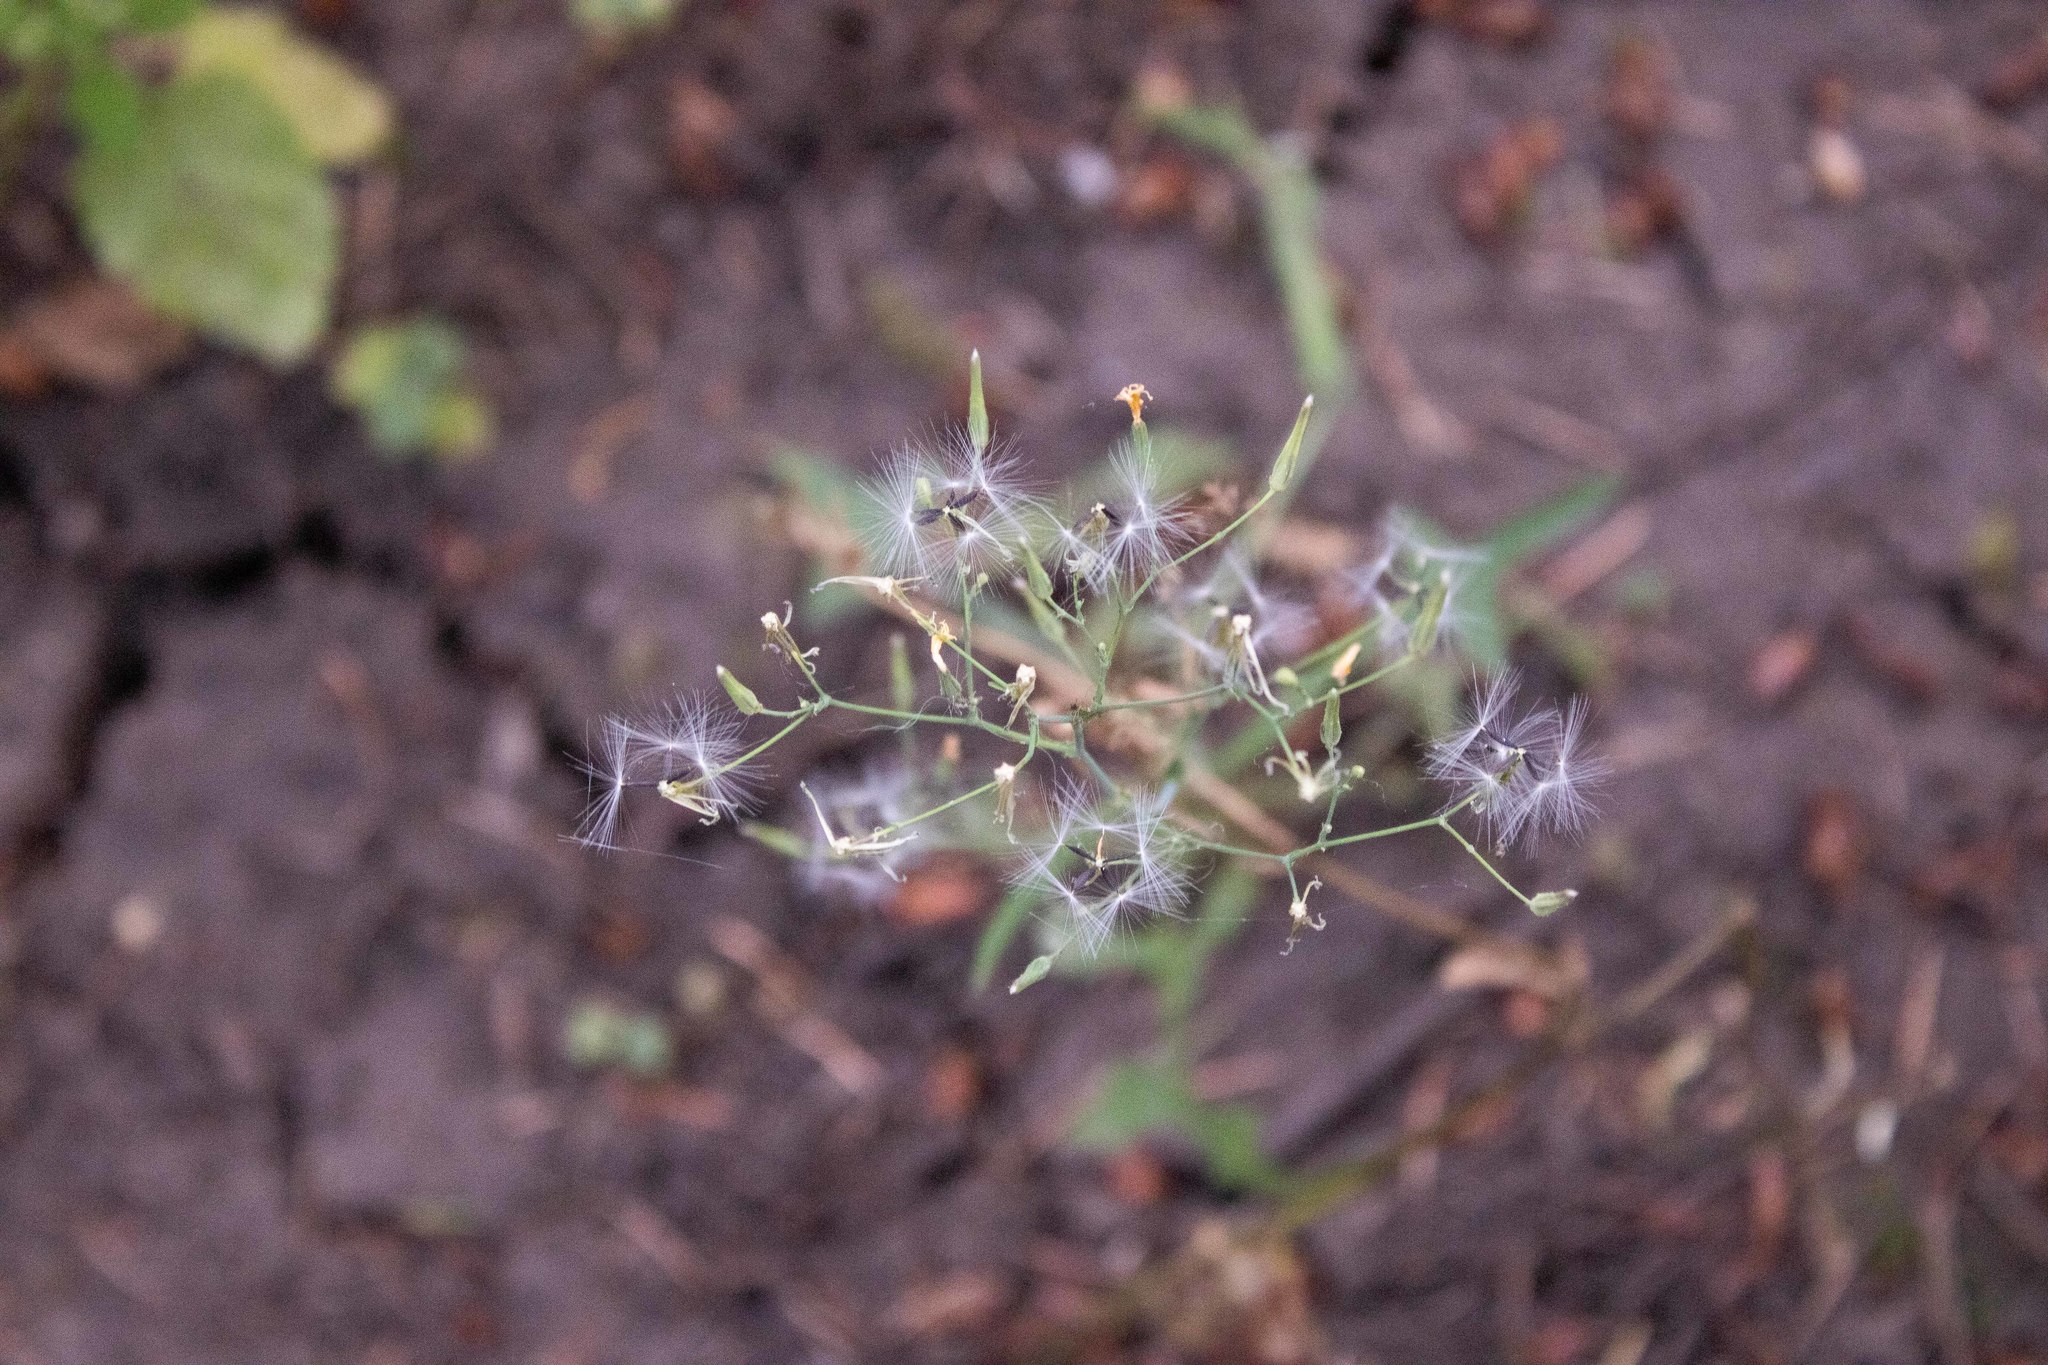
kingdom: Plantae
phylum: Tracheophyta
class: Magnoliopsida
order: Asterales
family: Asteraceae
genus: Mycelis
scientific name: Mycelis muralis
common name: Wall lettuce
